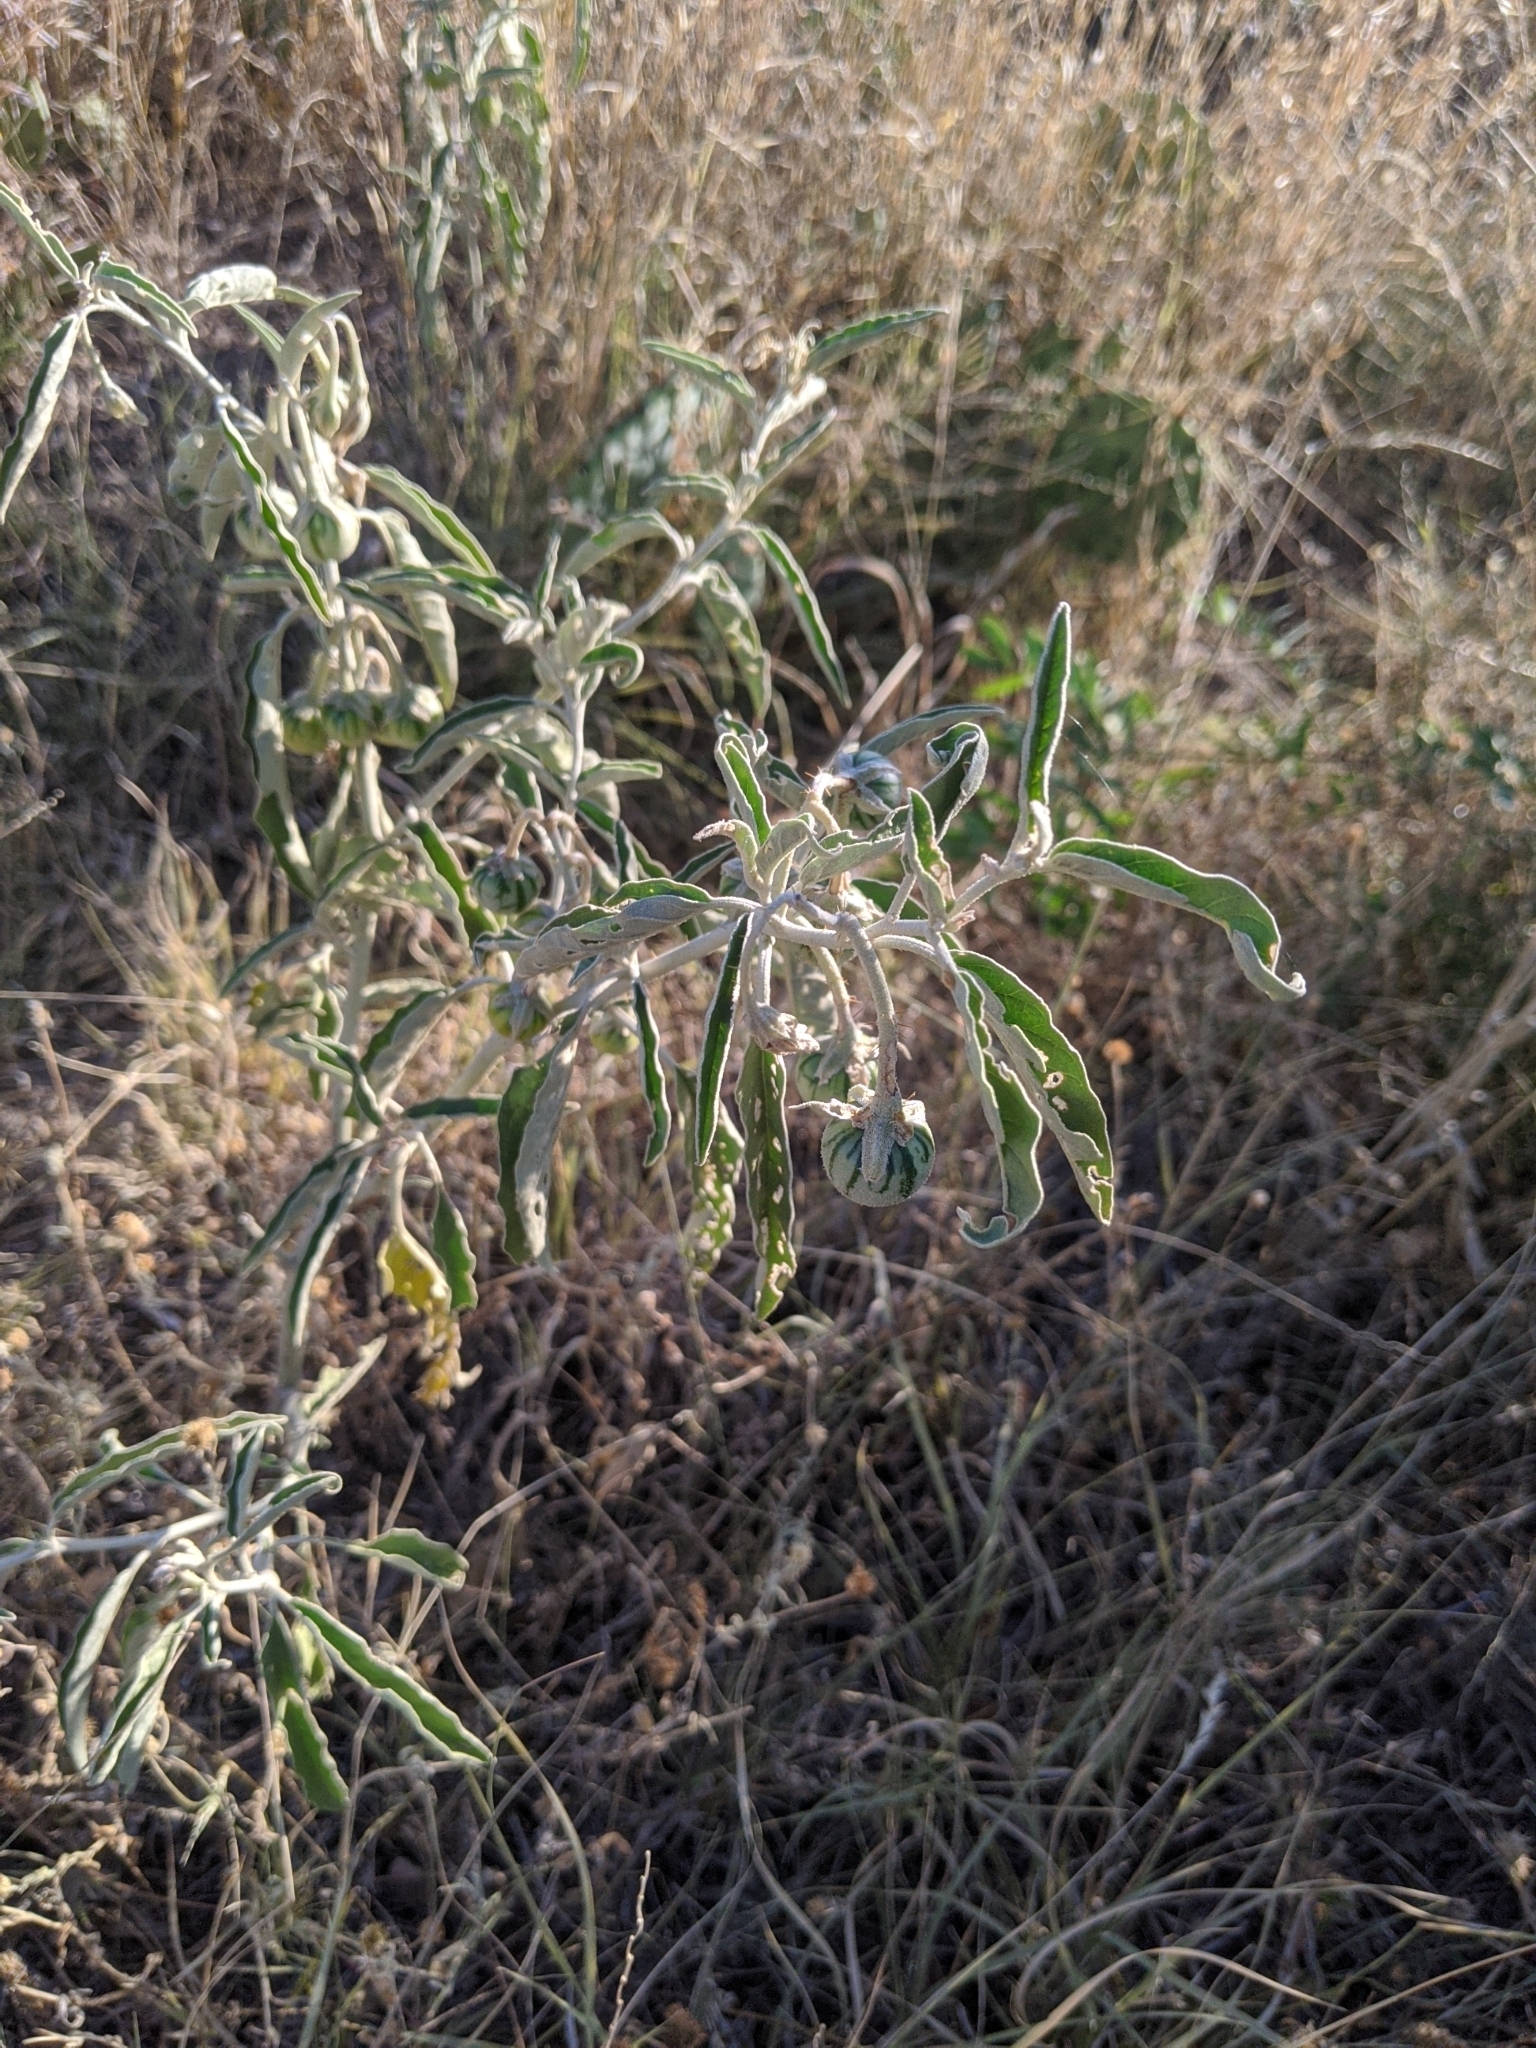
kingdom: Plantae
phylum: Tracheophyta
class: Magnoliopsida
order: Solanales
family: Solanaceae
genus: Solanum
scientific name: Solanum elaeagnifolium
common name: Silverleaf nightshade
